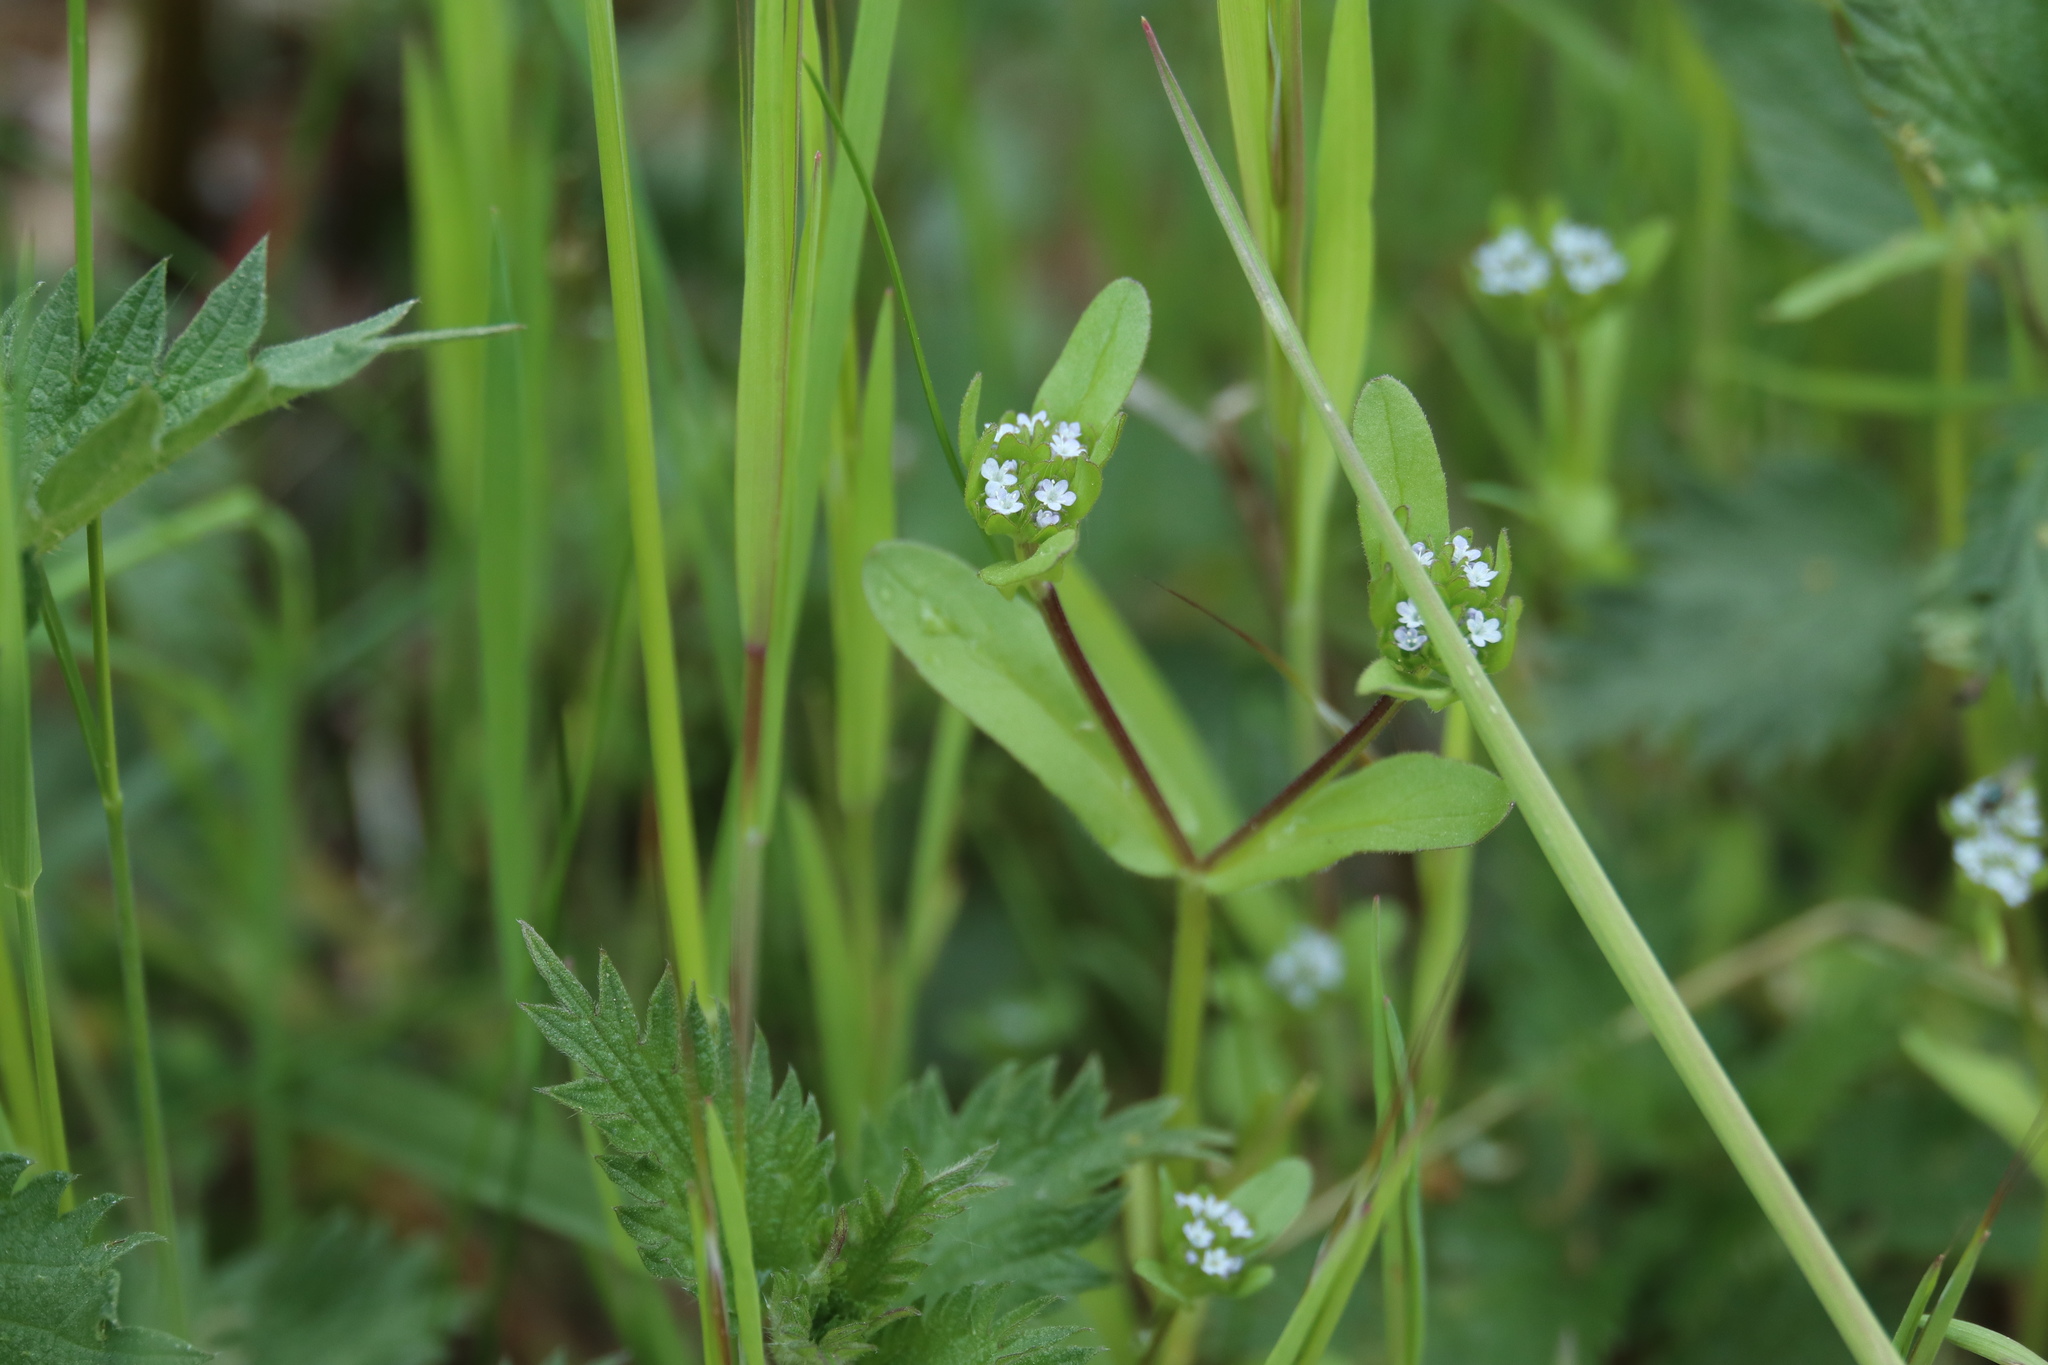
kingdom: Plantae
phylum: Tracheophyta
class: Magnoliopsida
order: Dipsacales
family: Caprifoliaceae
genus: Valerianella
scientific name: Valerianella locusta
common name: Common cornsalad
